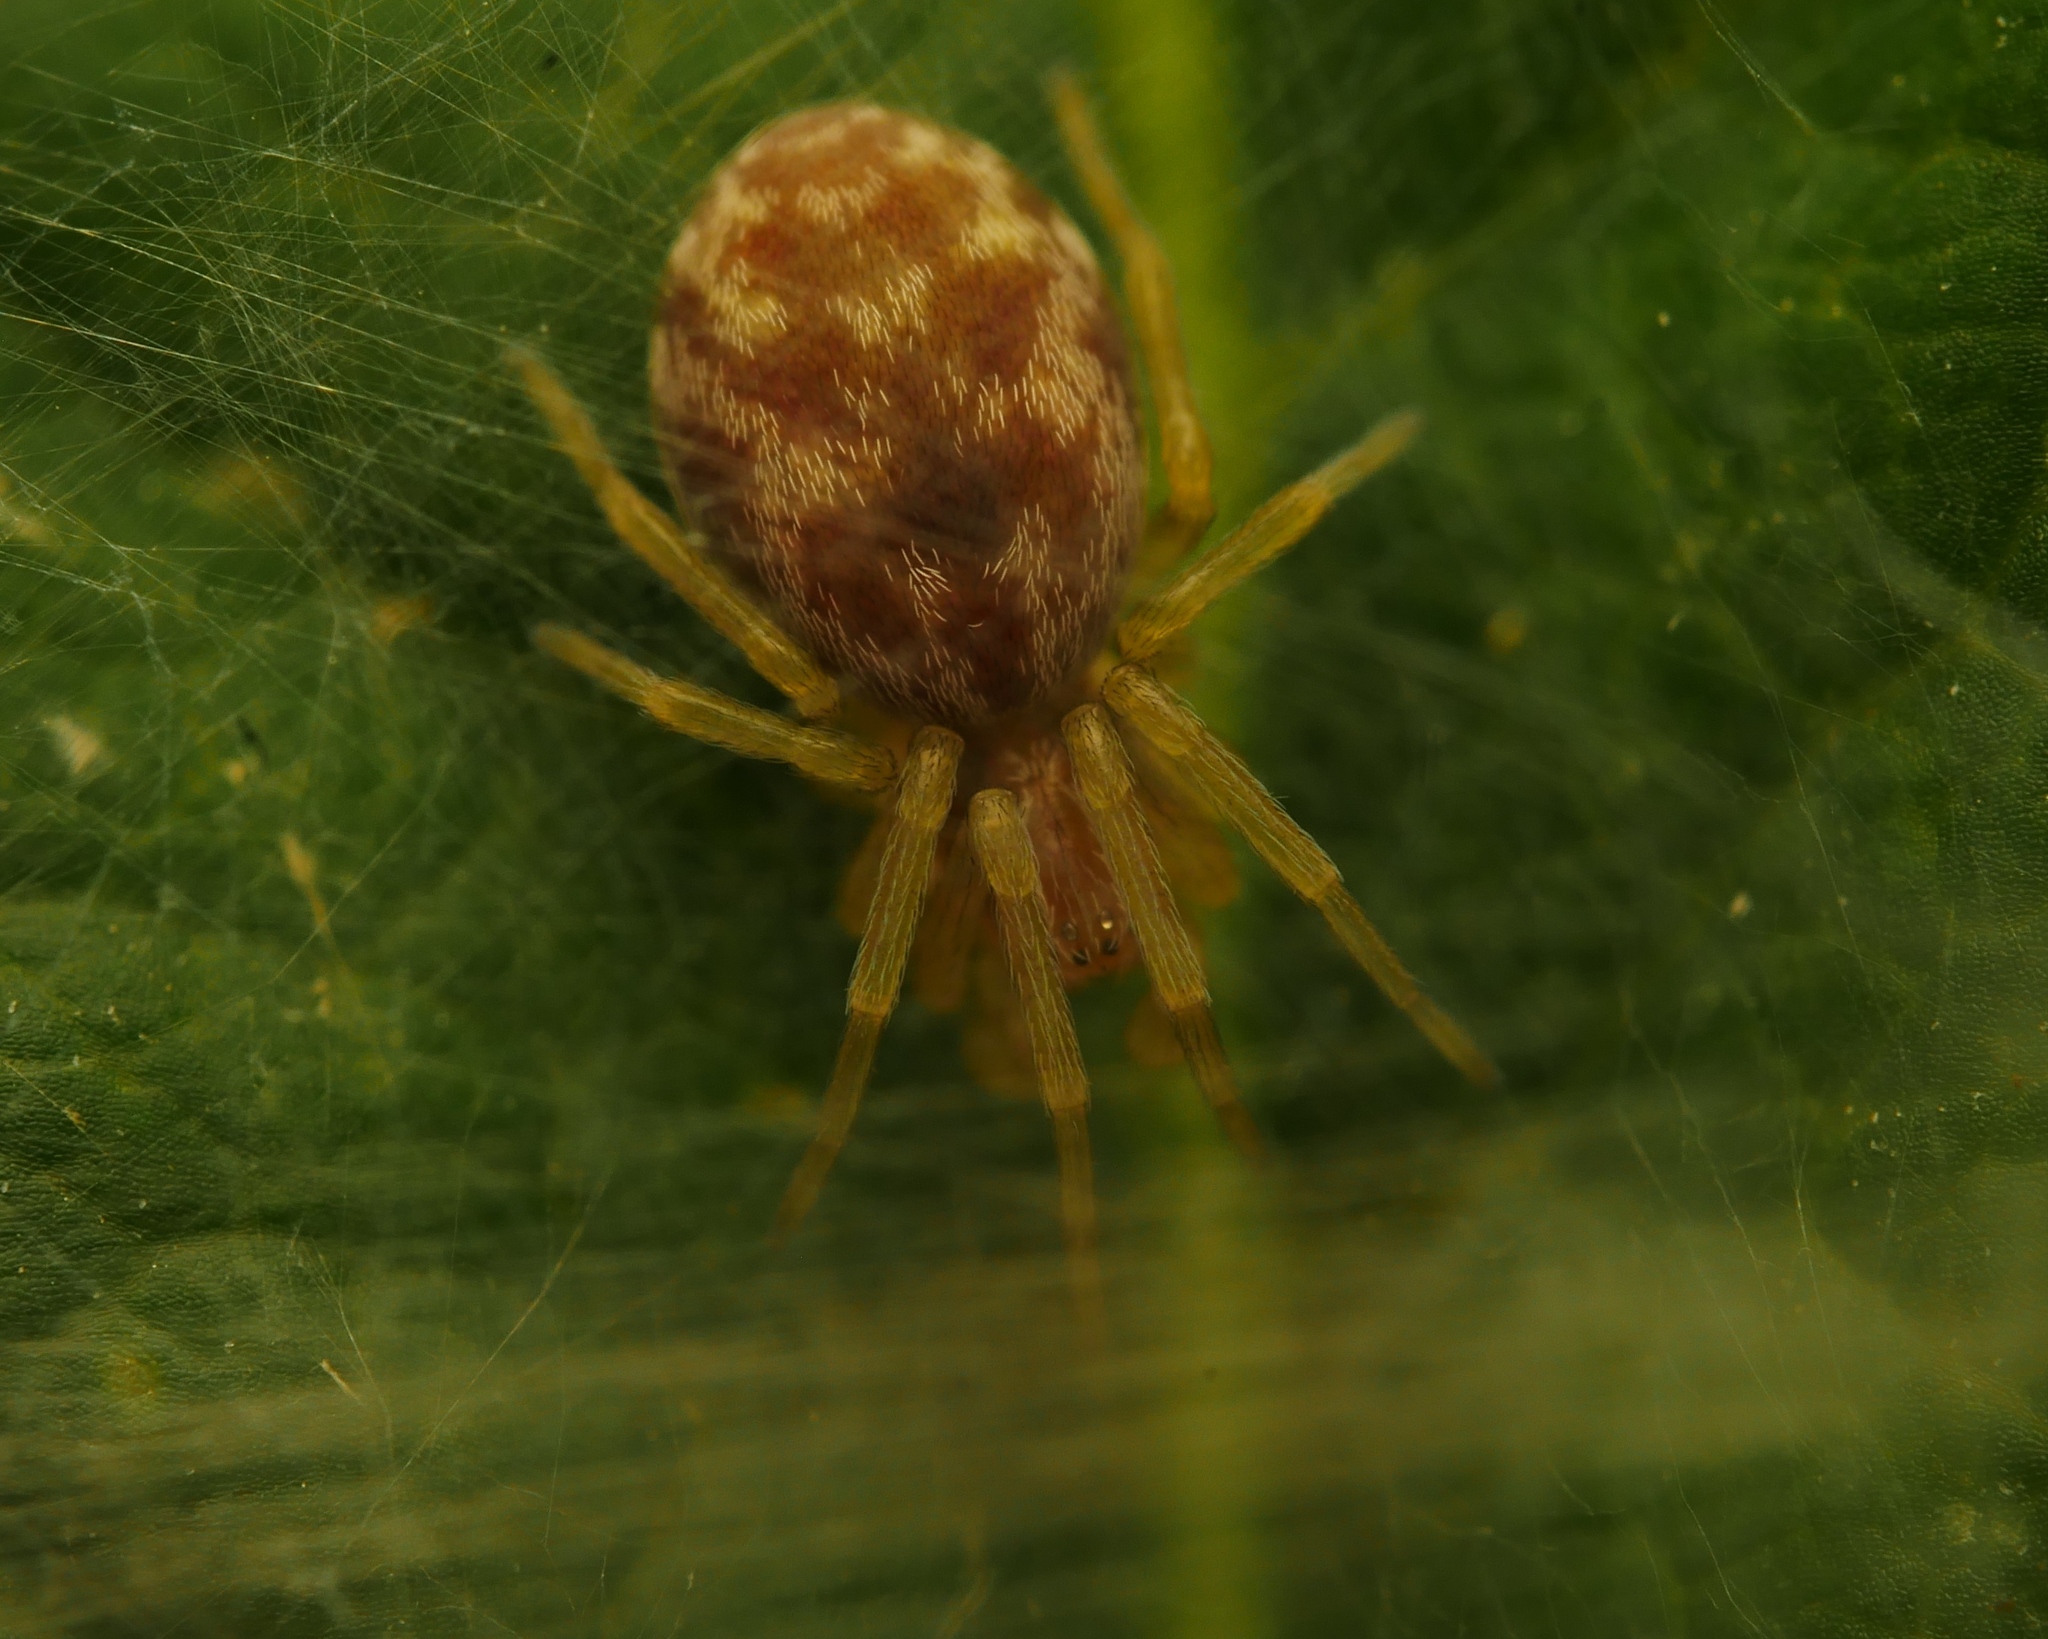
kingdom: Animalia
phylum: Arthropoda
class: Arachnida
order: Araneae
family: Dictynidae
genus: Nigma
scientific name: Nigma flavescens
